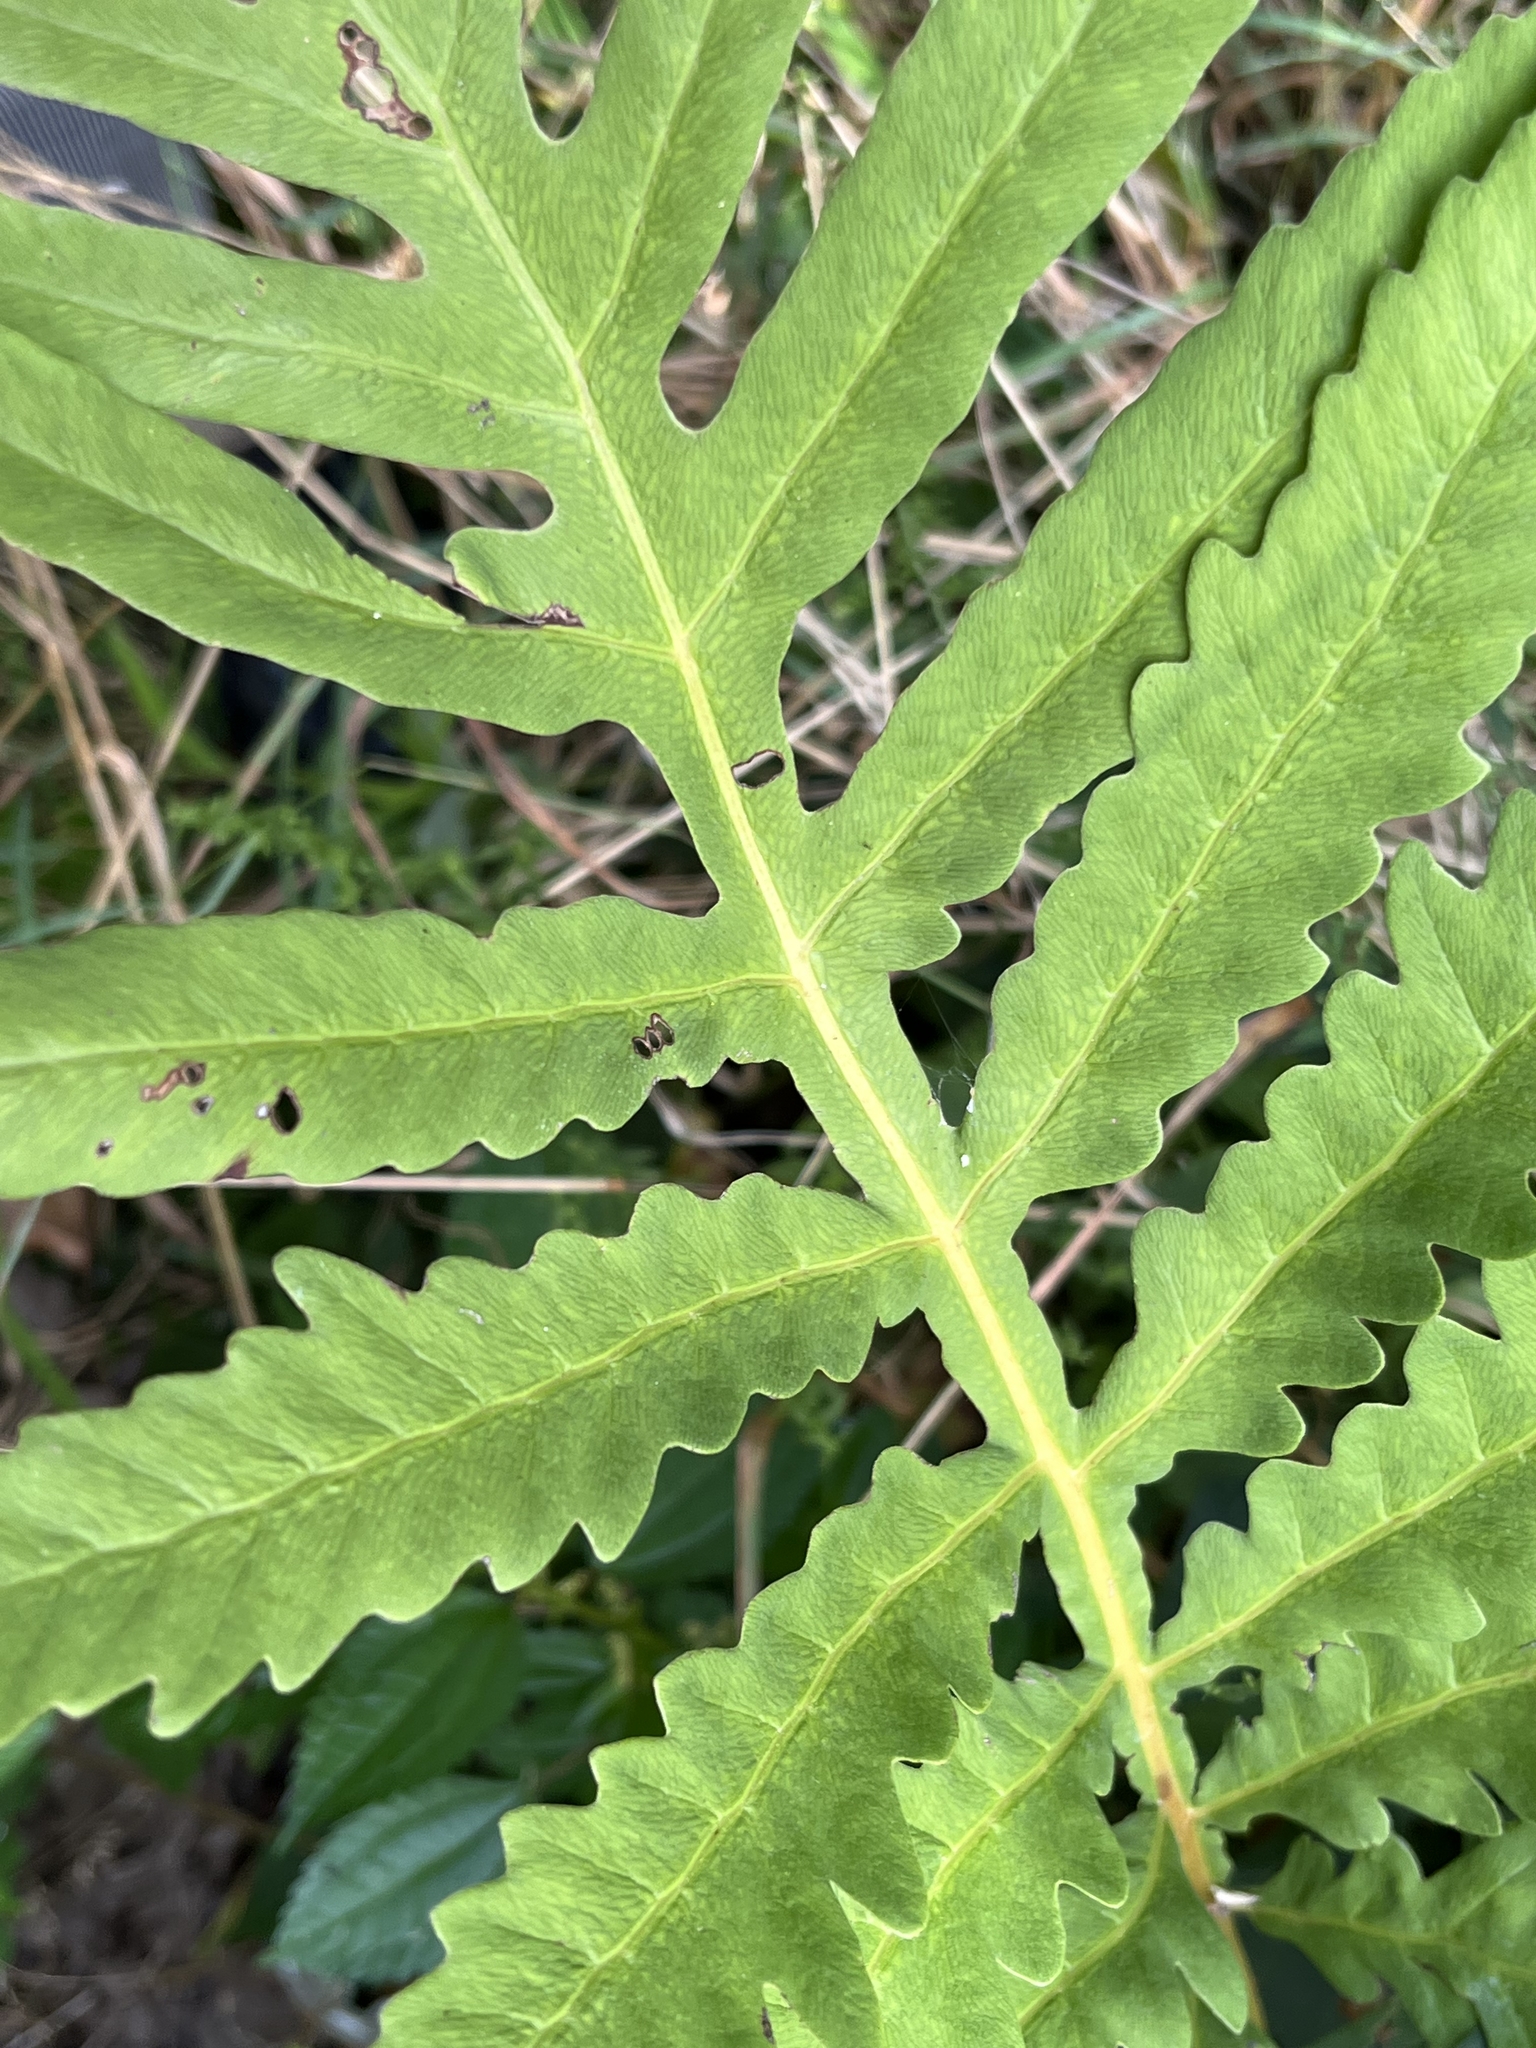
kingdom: Plantae
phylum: Tracheophyta
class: Polypodiopsida
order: Polypodiales
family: Onocleaceae
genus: Onoclea
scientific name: Onoclea sensibilis
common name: Sensitive fern
